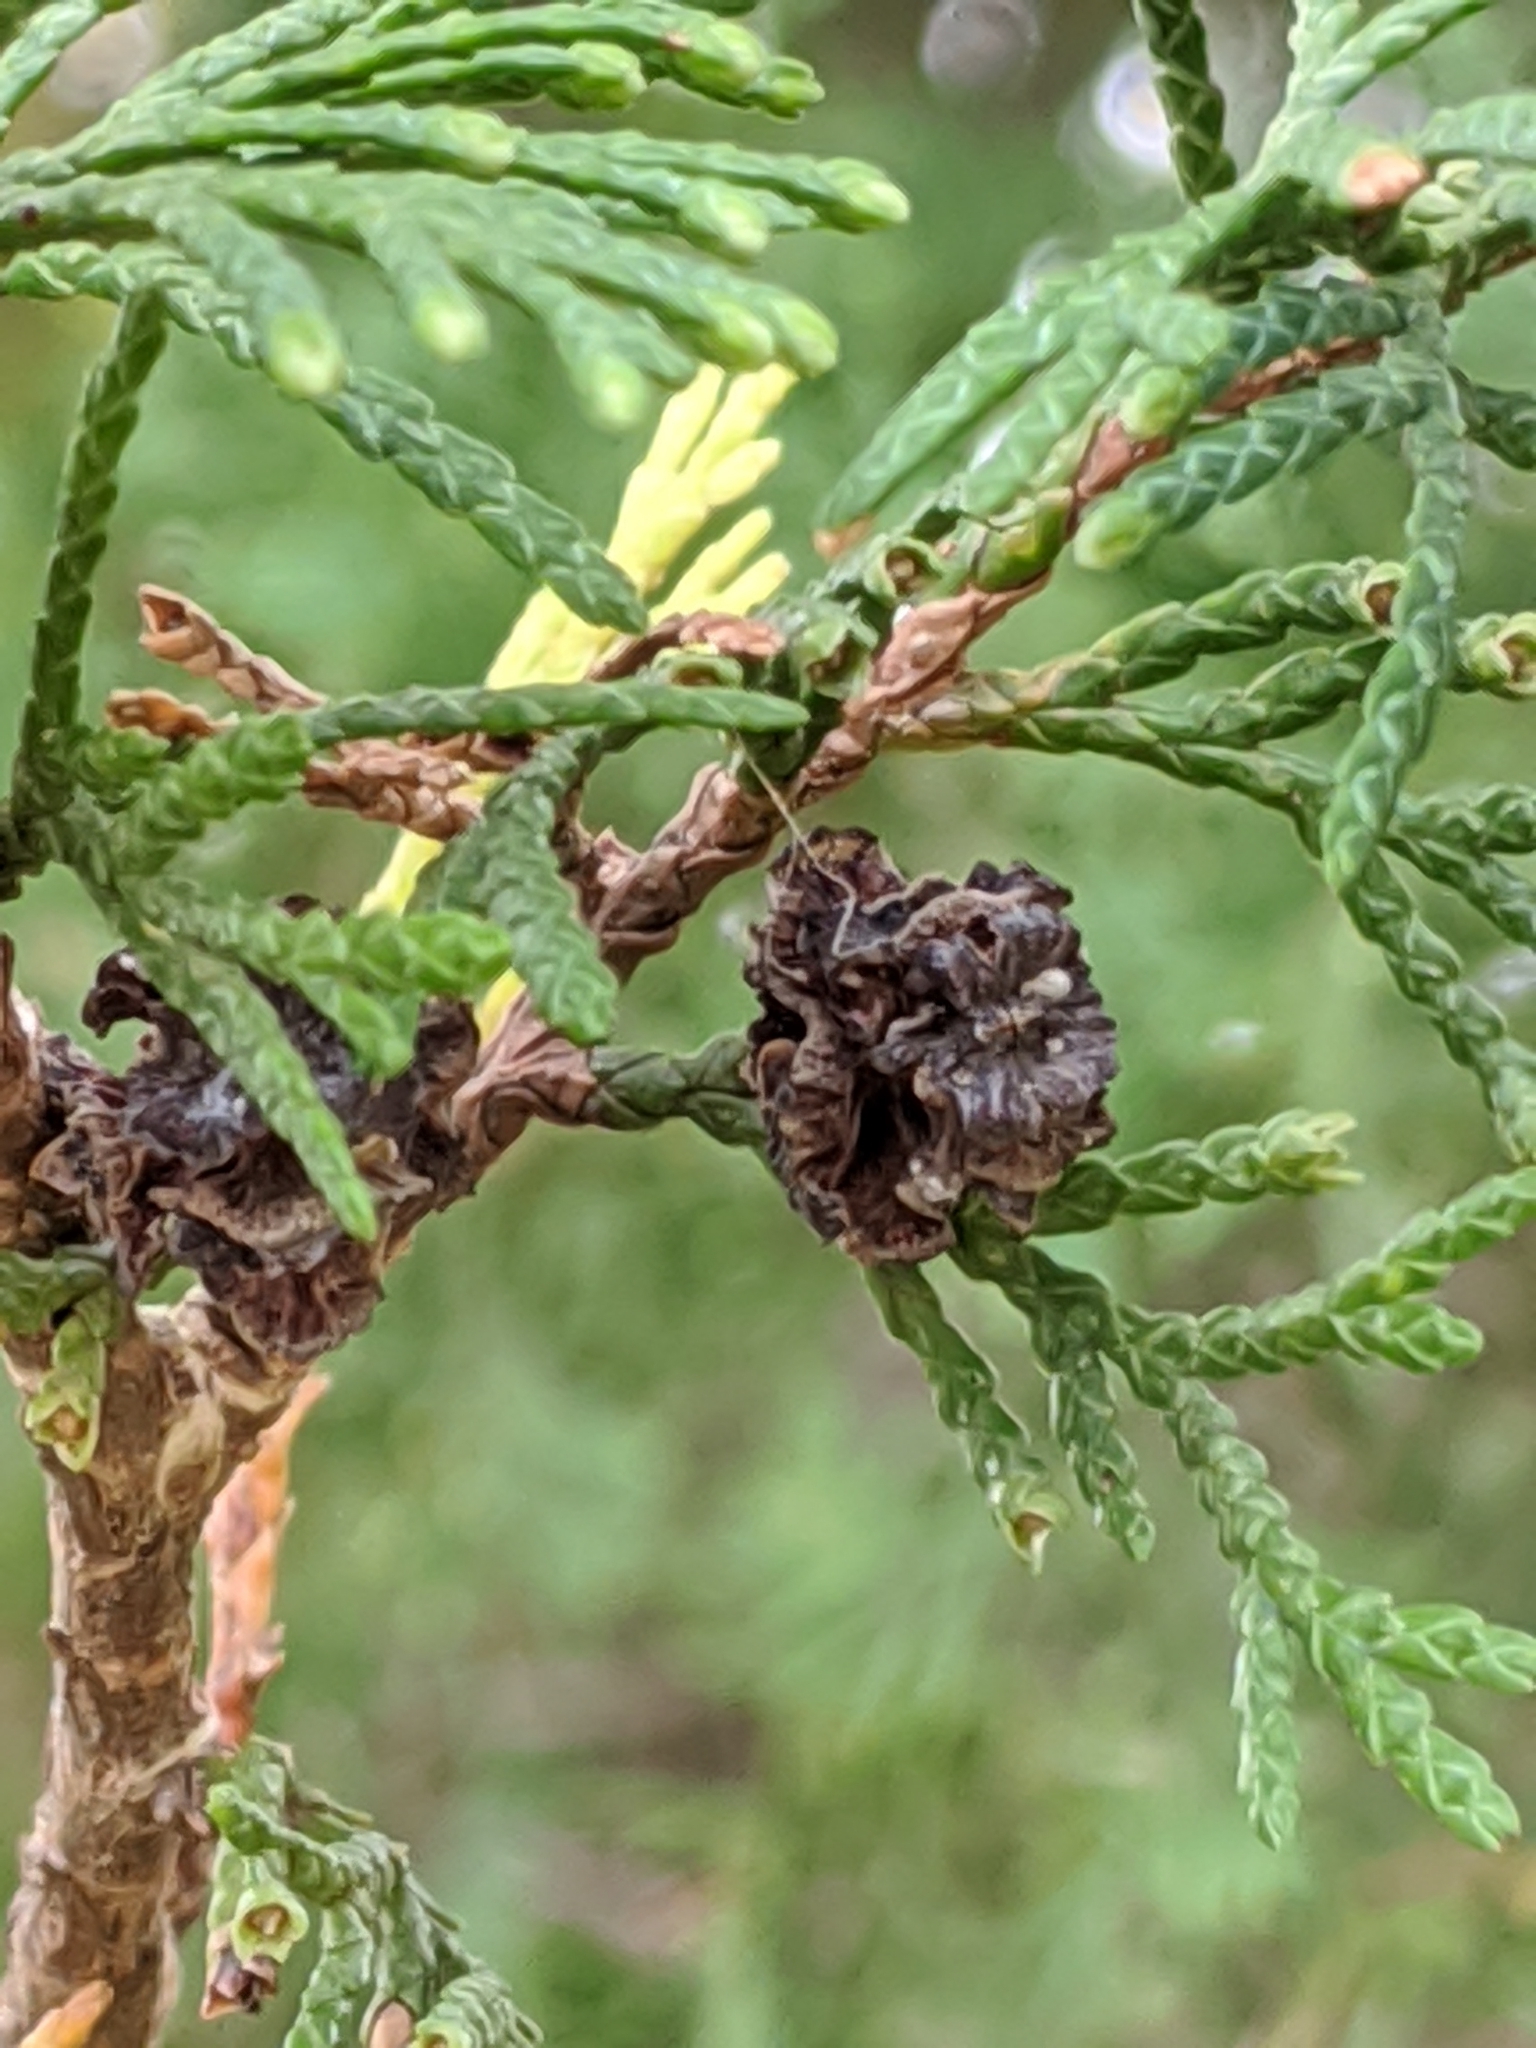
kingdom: Plantae
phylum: Tracheophyta
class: Pinopsida
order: Pinales
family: Cupressaceae
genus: Chamaecyparis
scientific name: Chamaecyparis thyoides
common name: Atlantic white cedar
